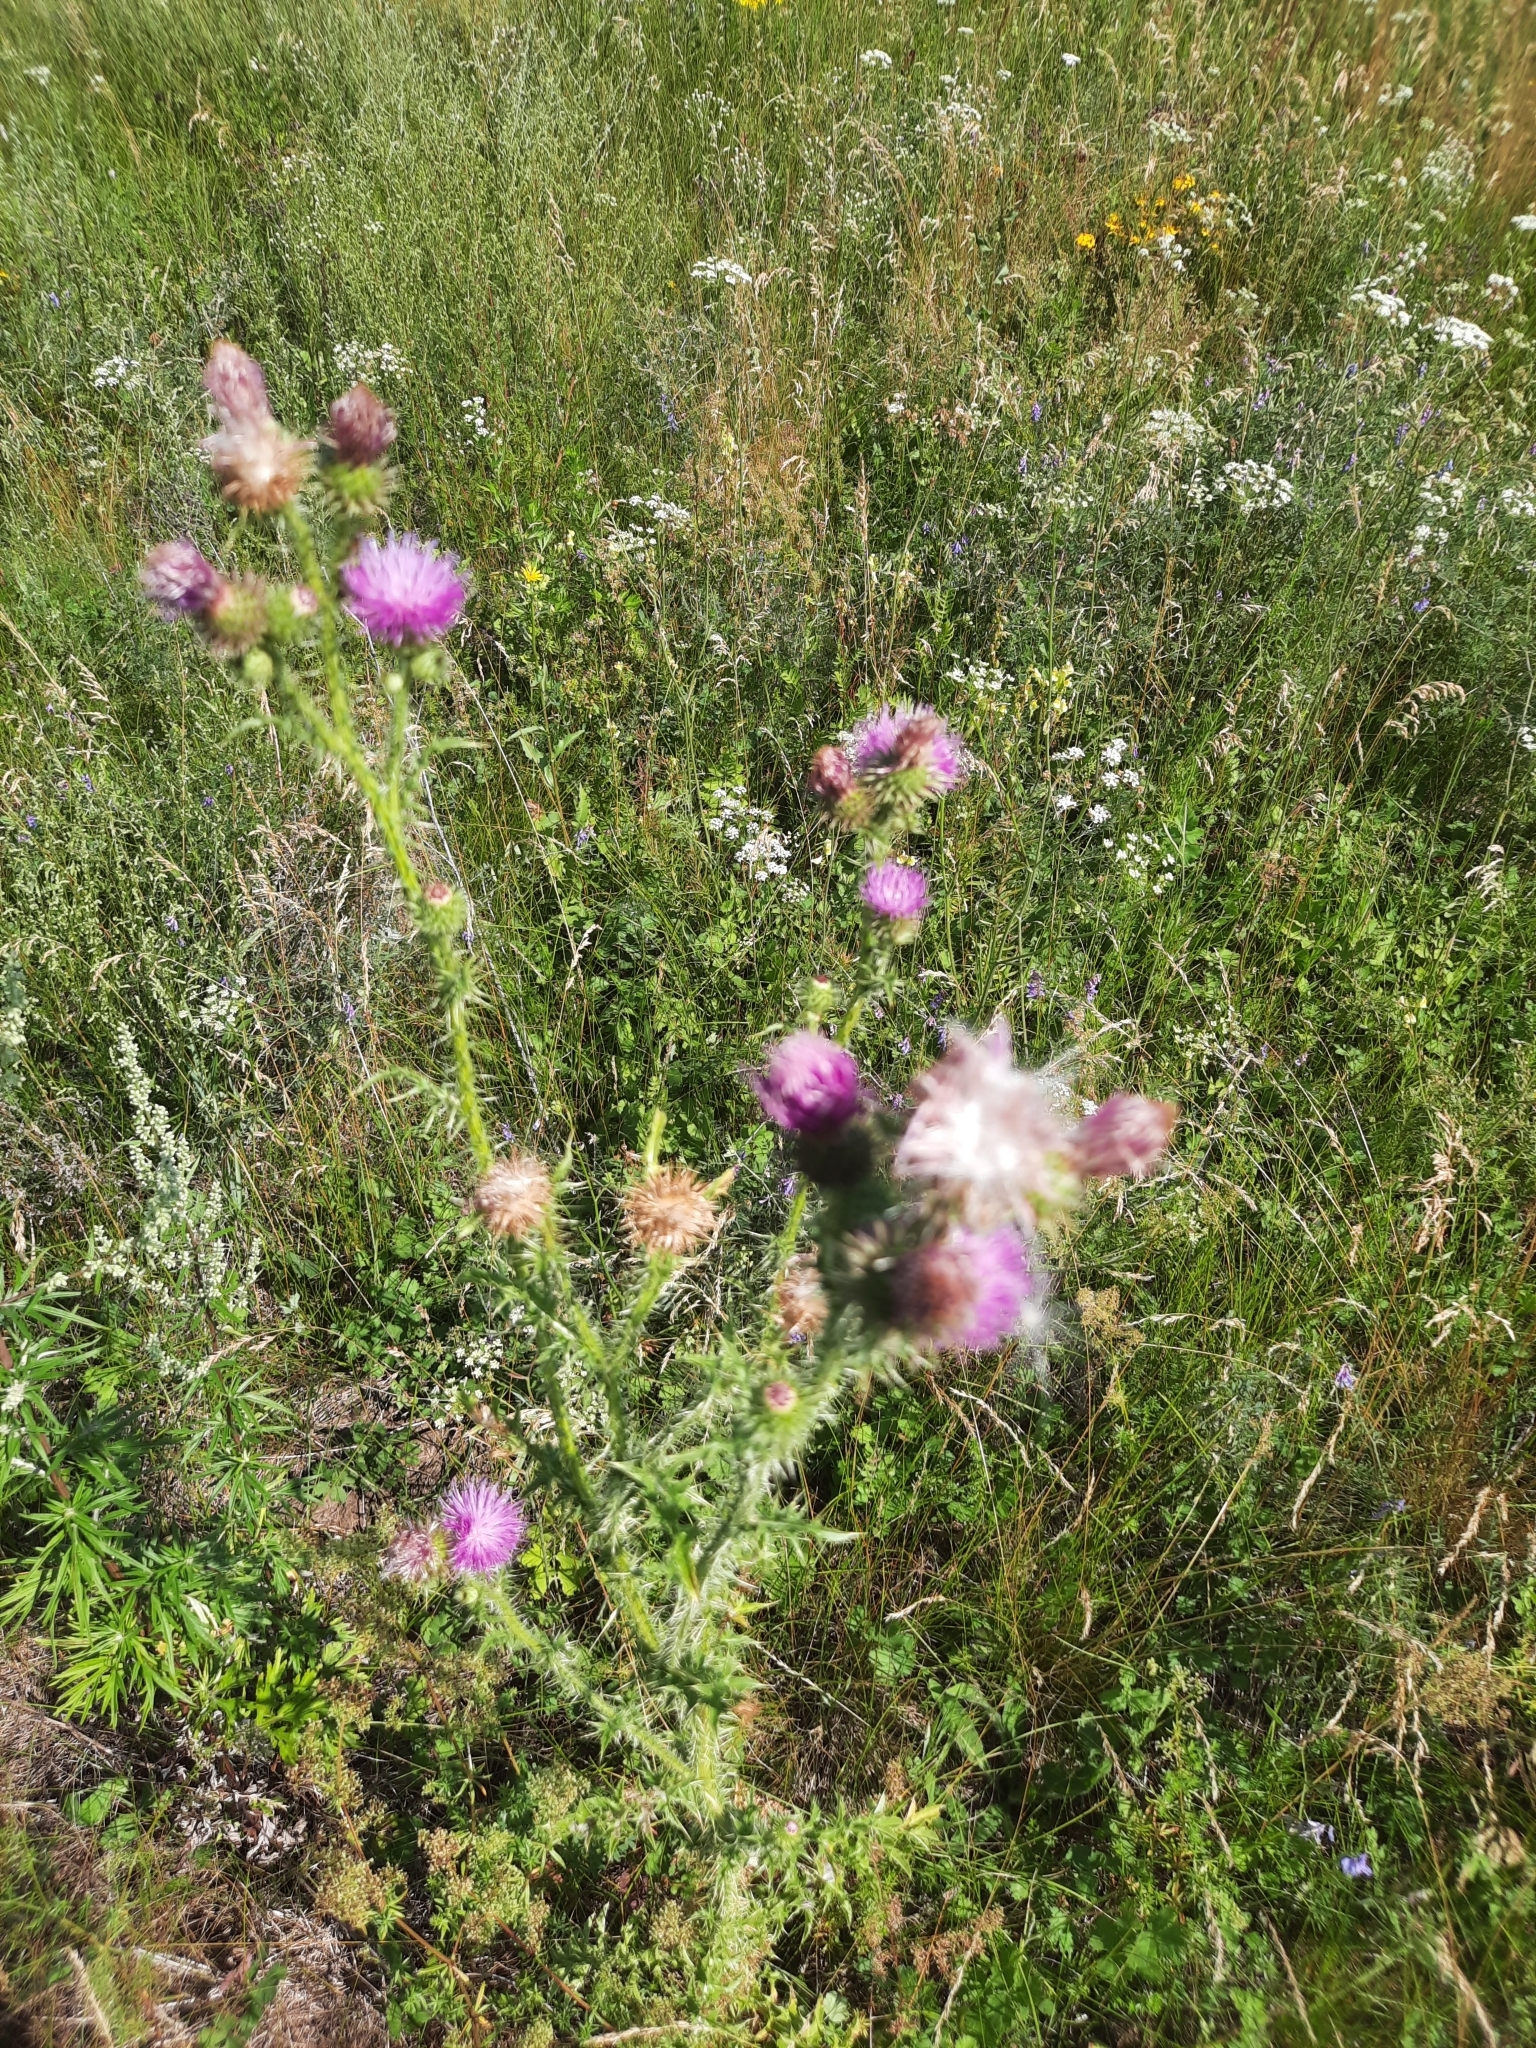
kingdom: Plantae
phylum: Tracheophyta
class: Magnoliopsida
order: Asterales
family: Asteraceae
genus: Carduus
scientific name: Carduus acanthoides
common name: Plumeless thistle
